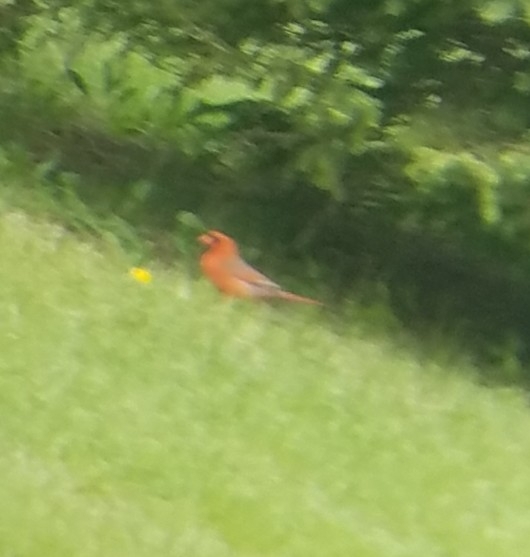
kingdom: Animalia
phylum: Chordata
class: Aves
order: Passeriformes
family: Cardinalidae
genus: Cardinalis
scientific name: Cardinalis cardinalis
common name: Northern cardinal
